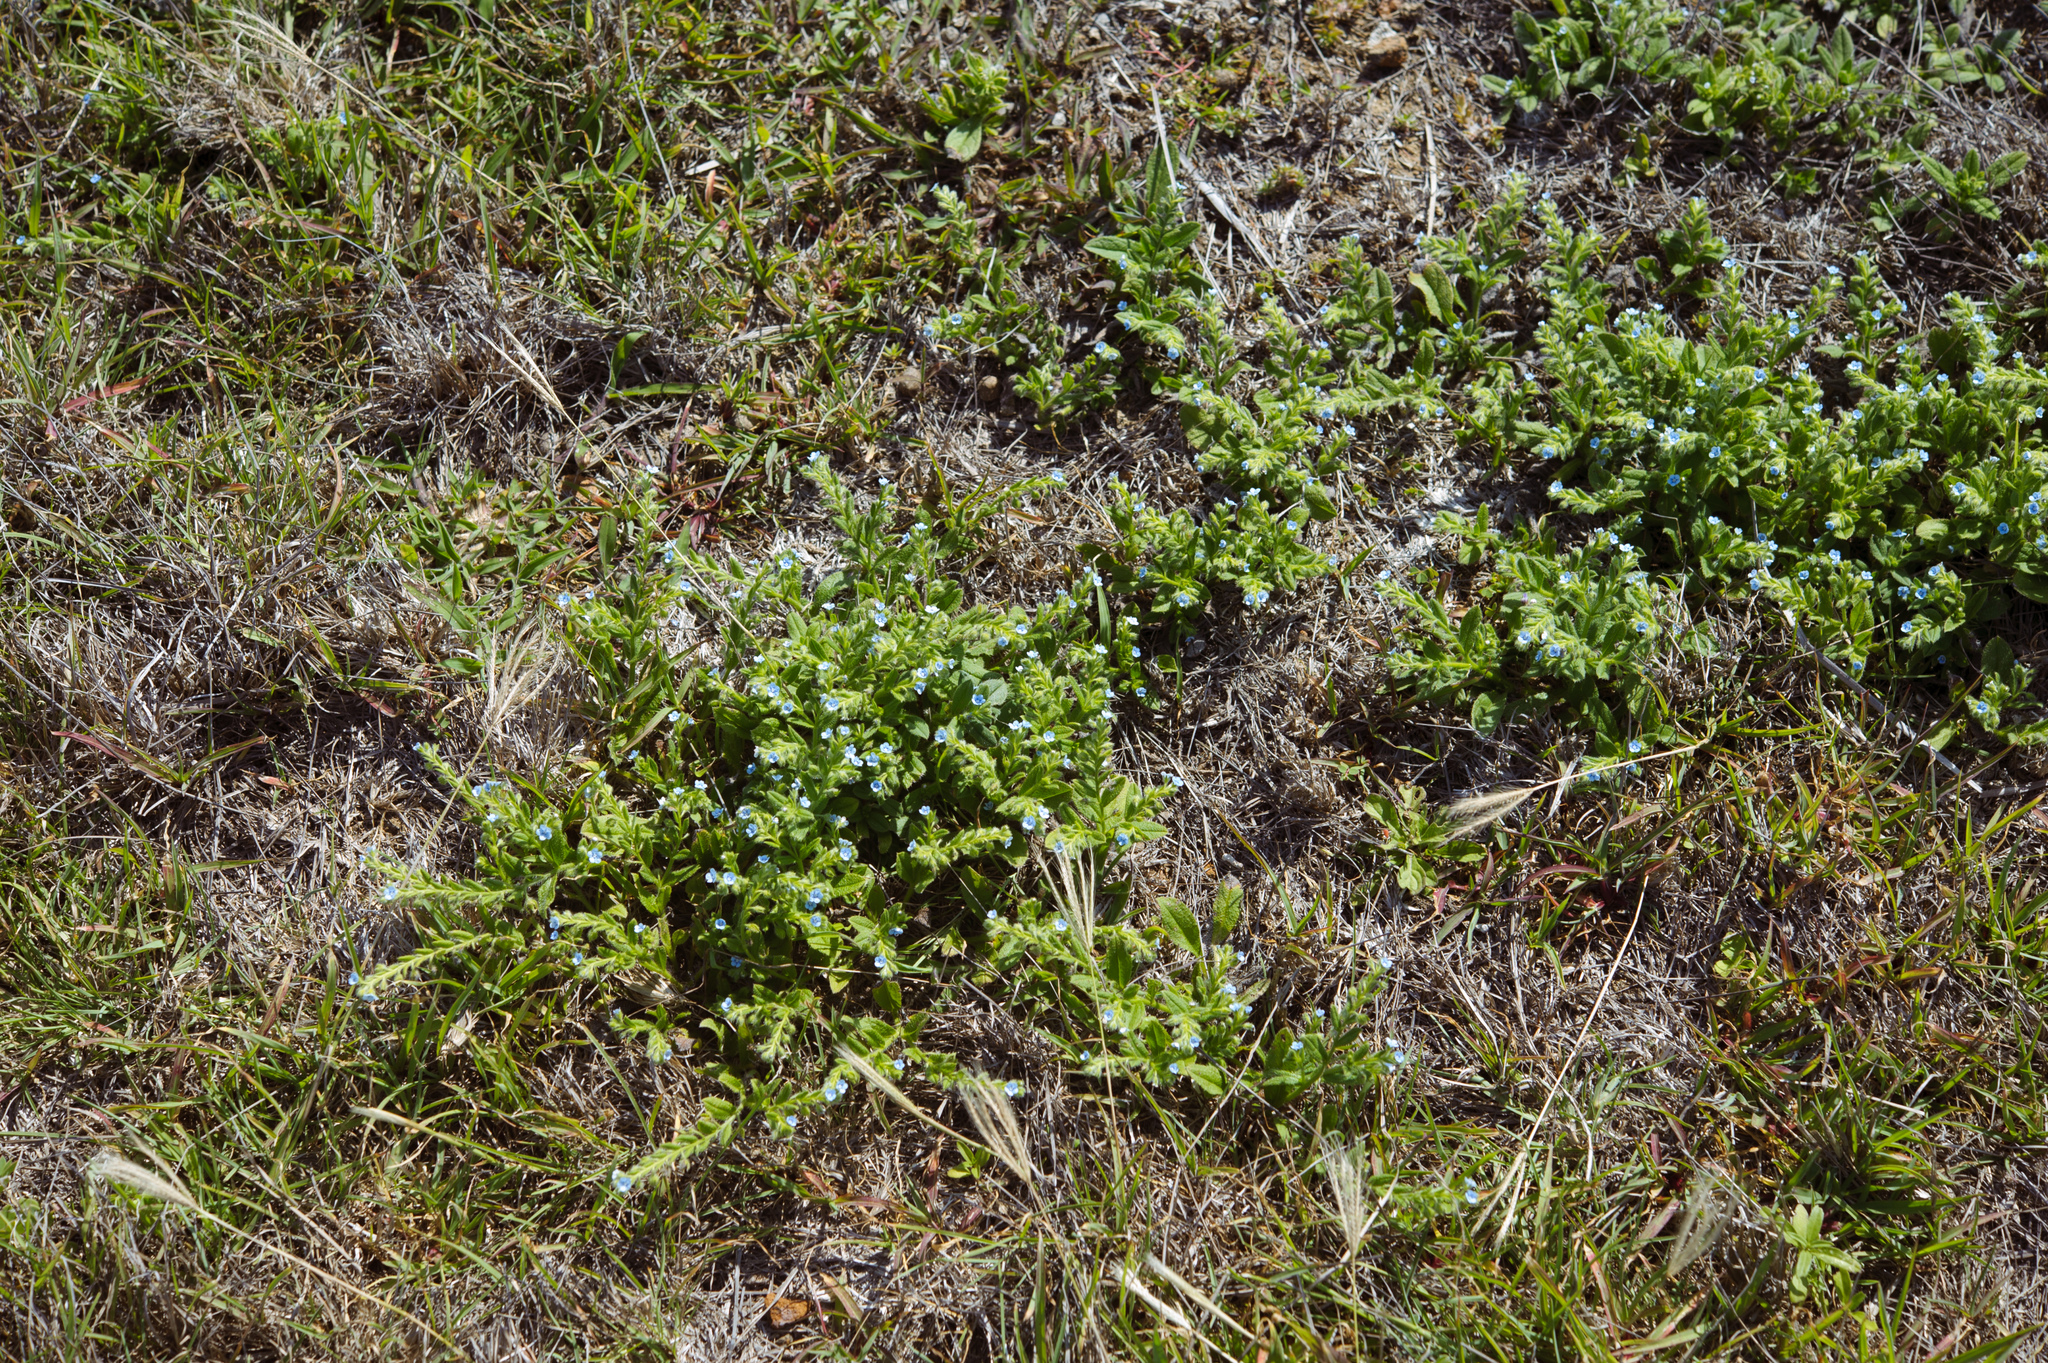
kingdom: Plantae
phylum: Tracheophyta
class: Magnoliopsida
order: Boraginales
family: Boraginaceae
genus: Thyrocarpus
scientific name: Thyrocarpus sampsonii
